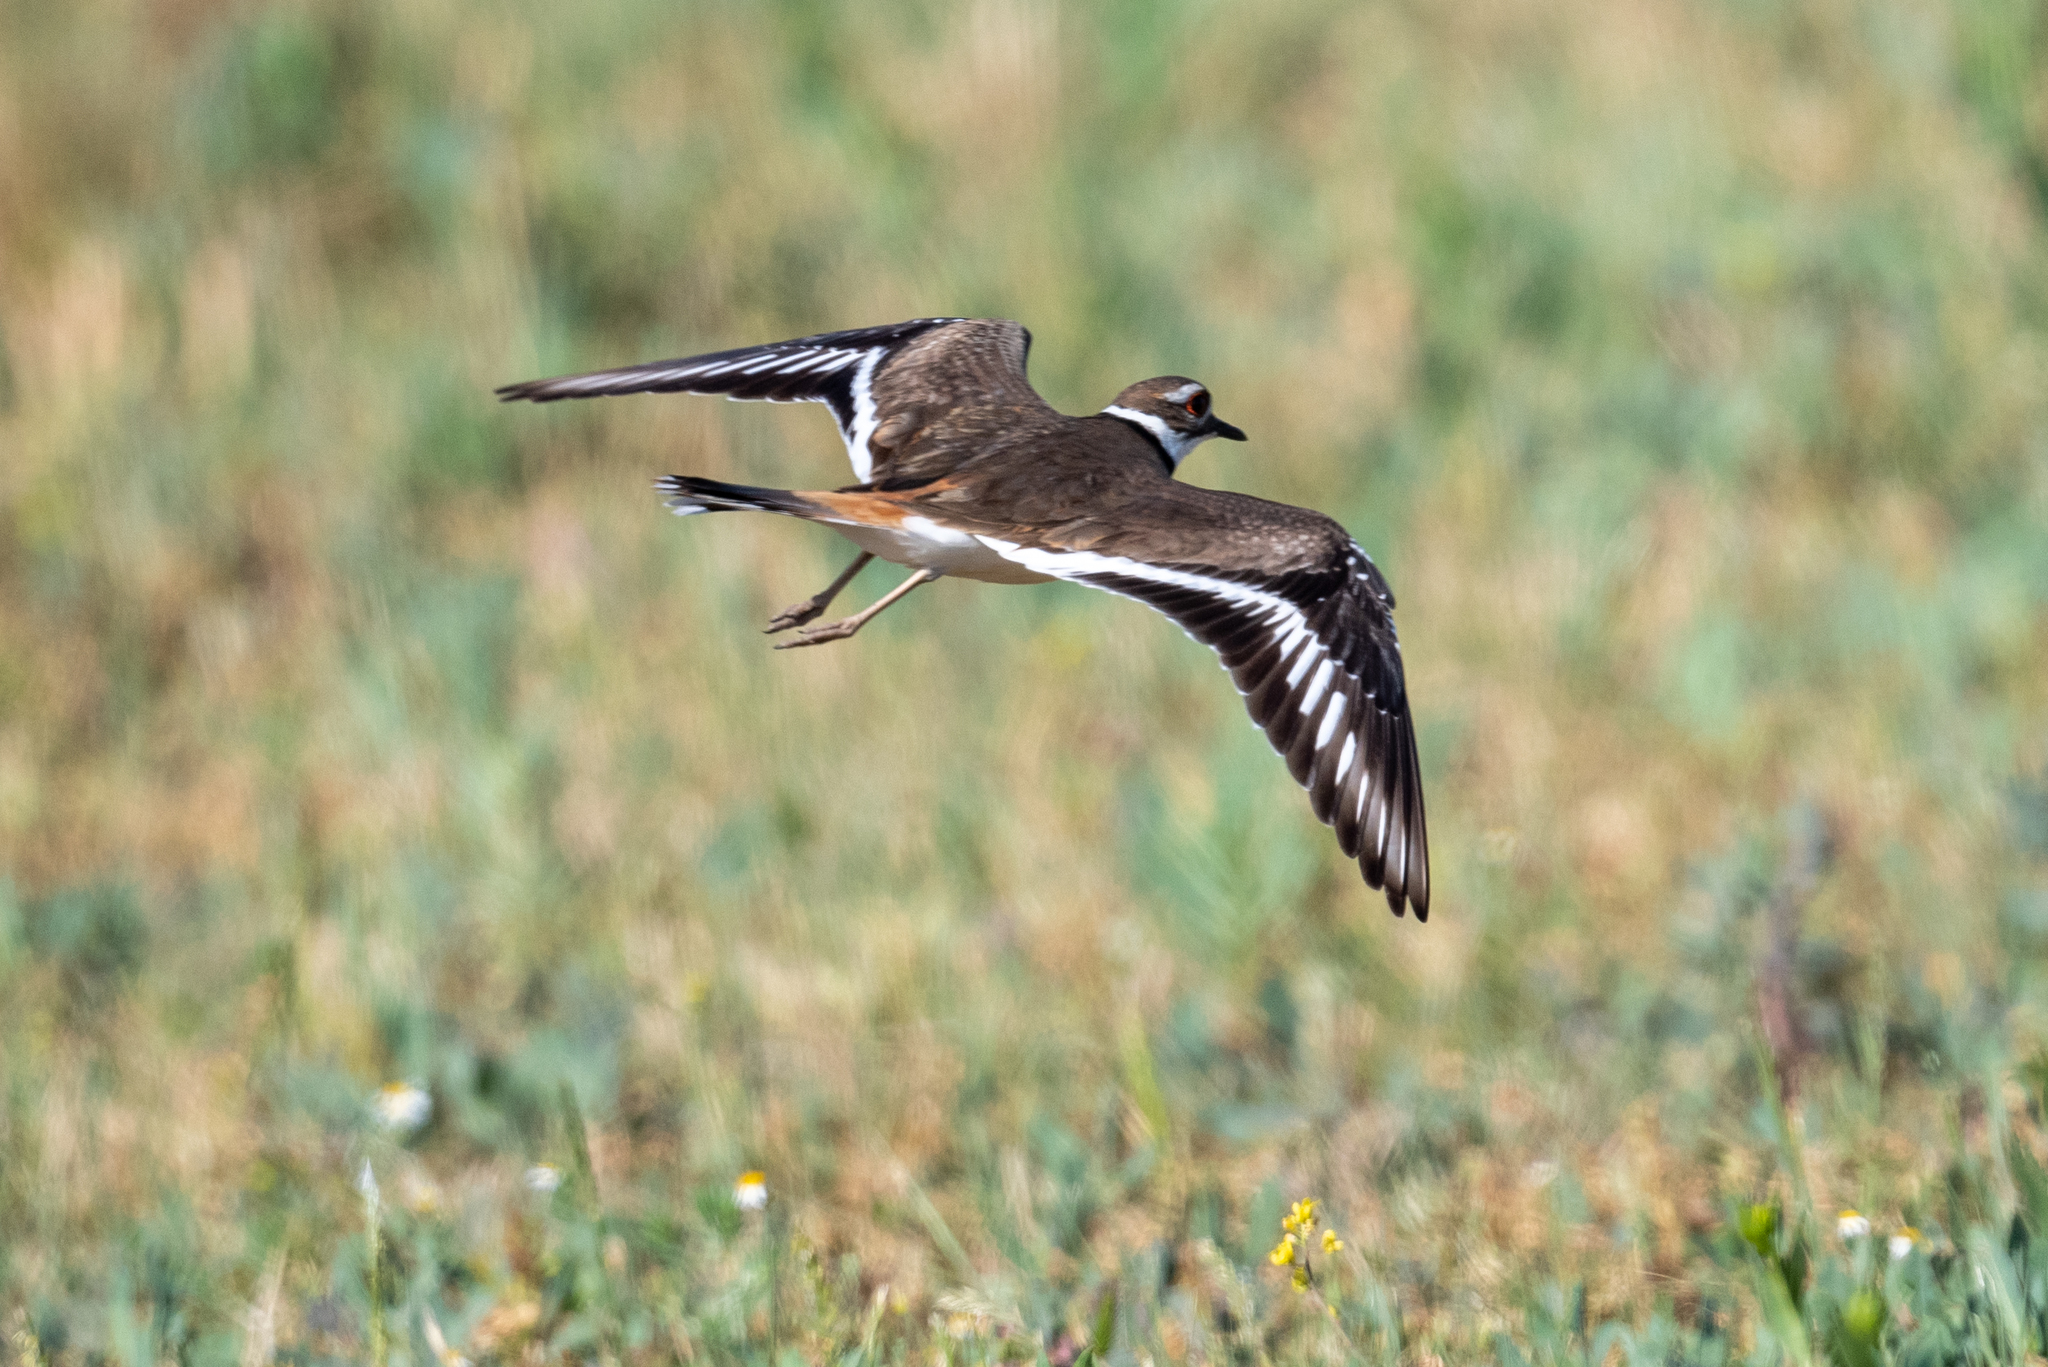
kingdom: Animalia
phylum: Chordata
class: Aves
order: Charadriiformes
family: Charadriidae
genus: Charadrius
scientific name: Charadrius vociferus
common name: Killdeer
